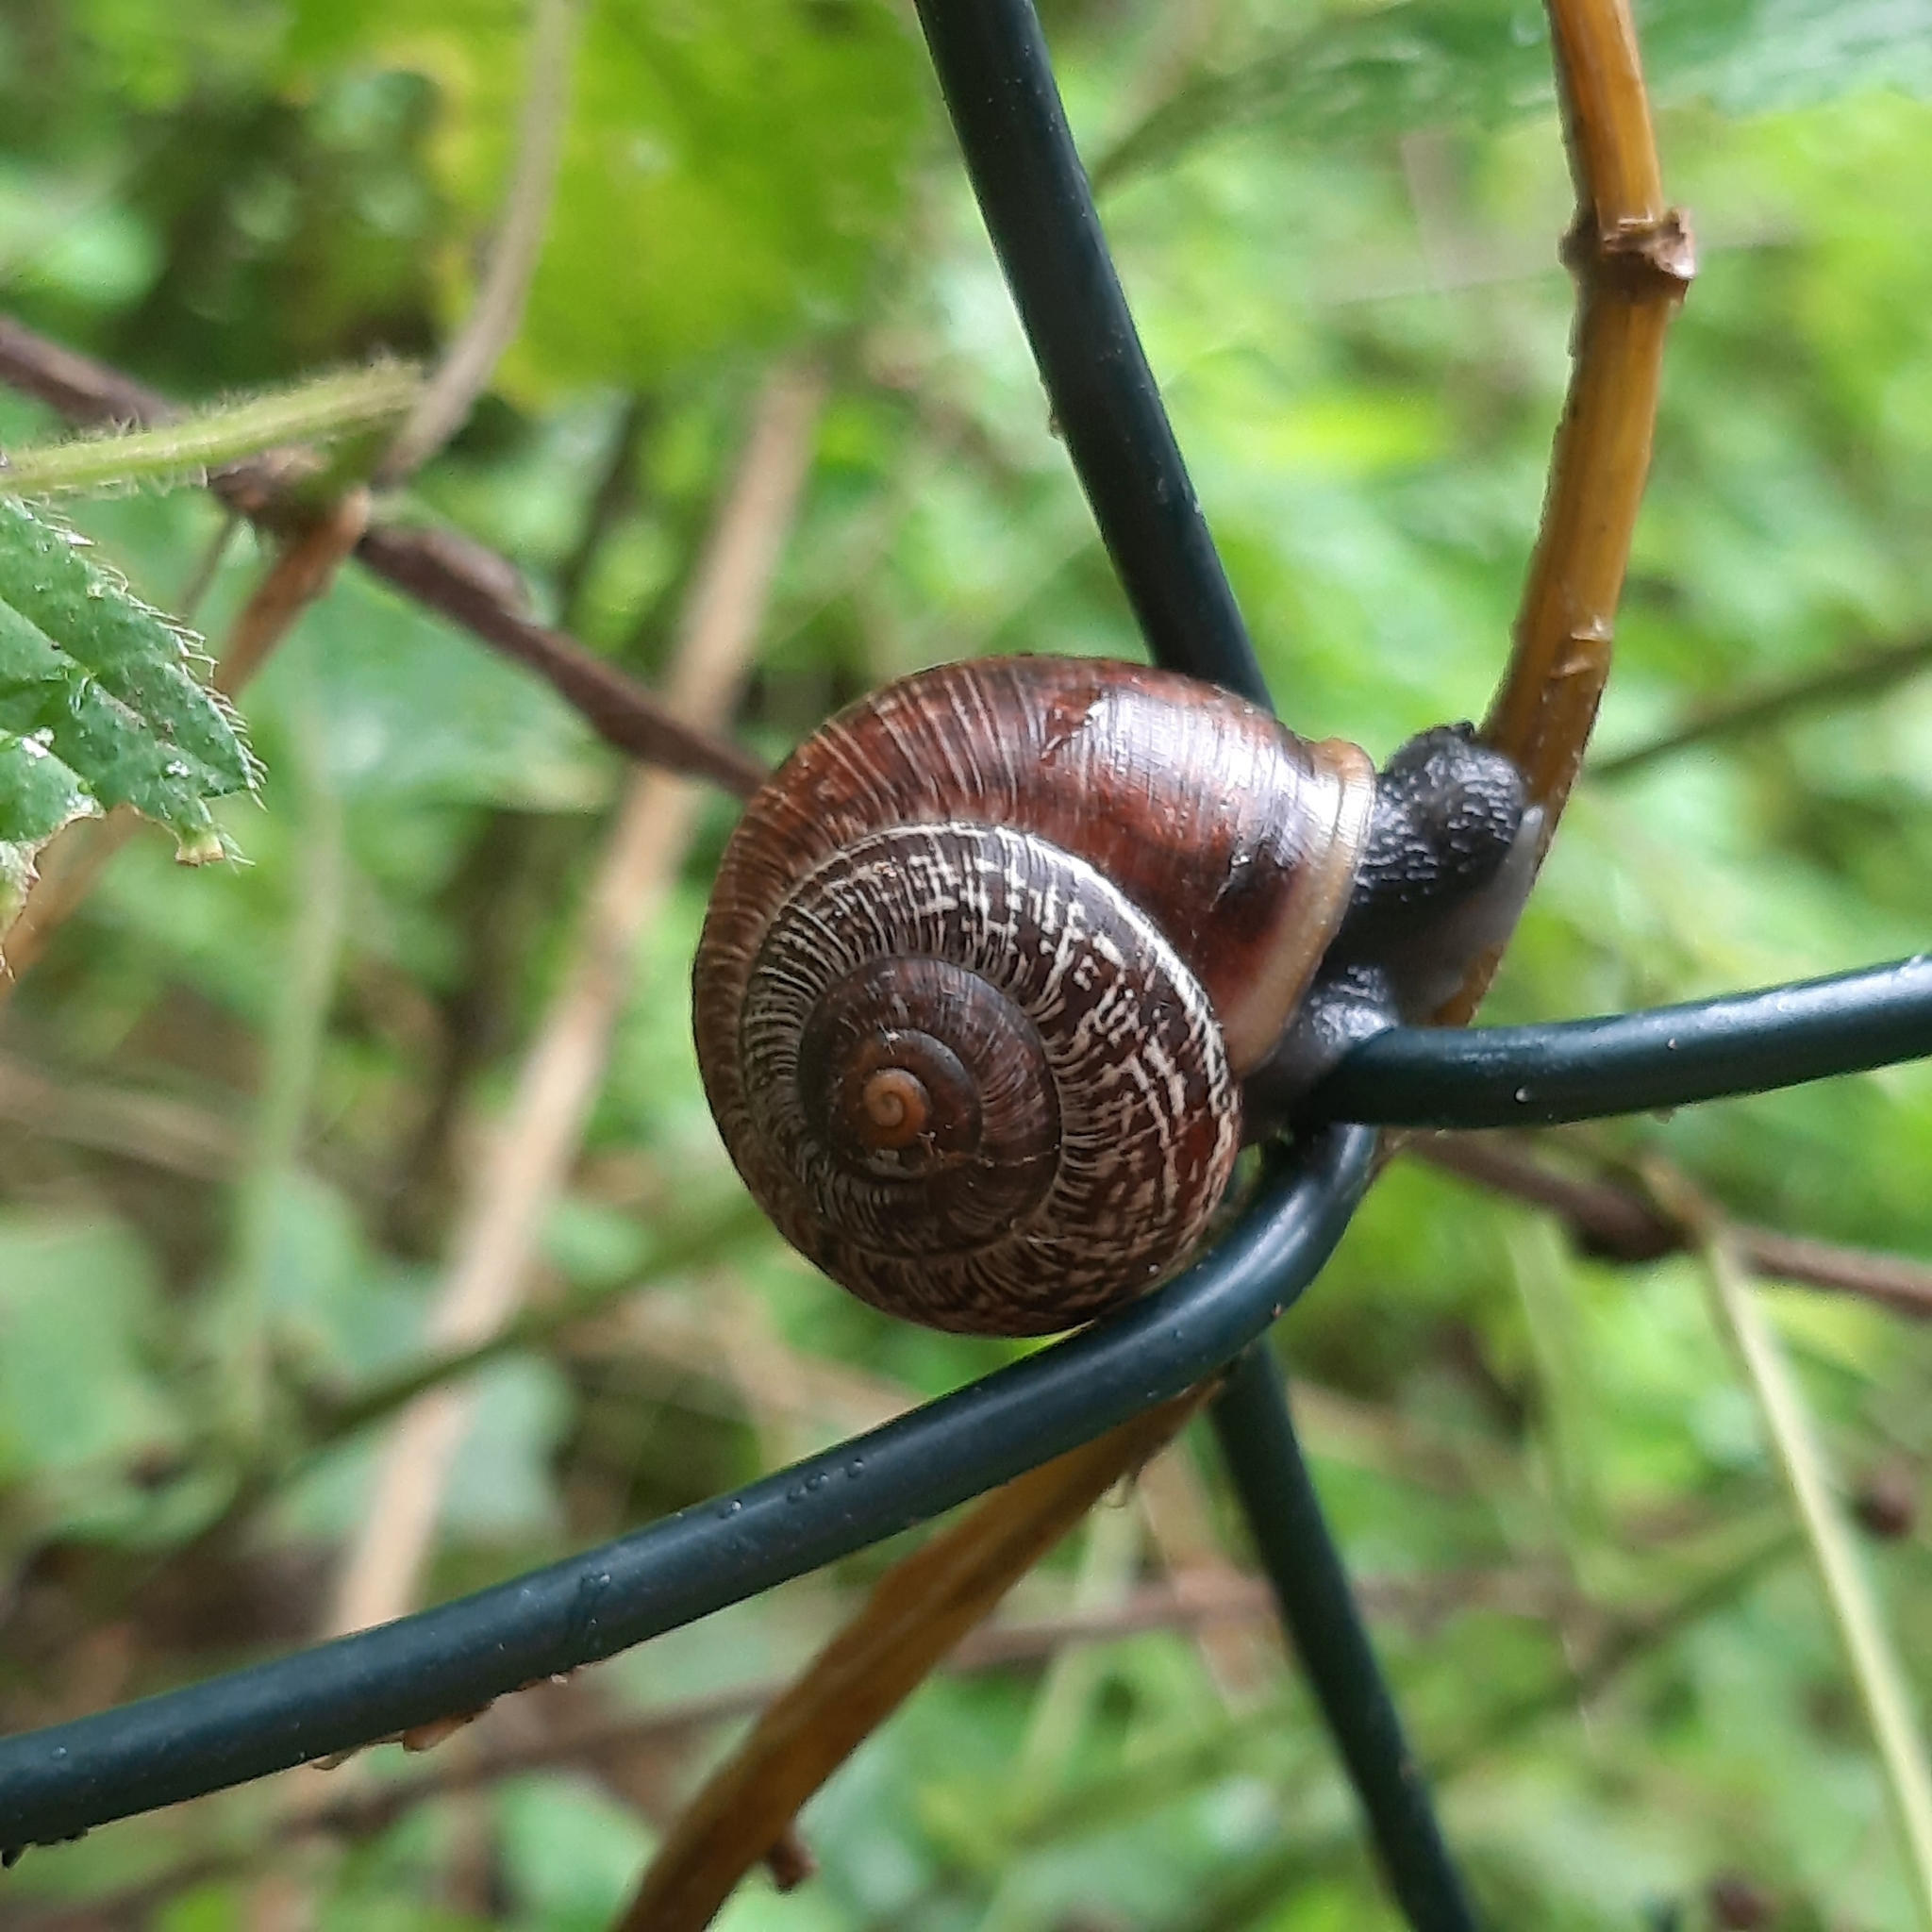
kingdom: Animalia
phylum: Mollusca
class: Gastropoda
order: Stylommatophora
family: Helicidae
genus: Arianta
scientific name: Arianta arbustorum
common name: Copse snail
